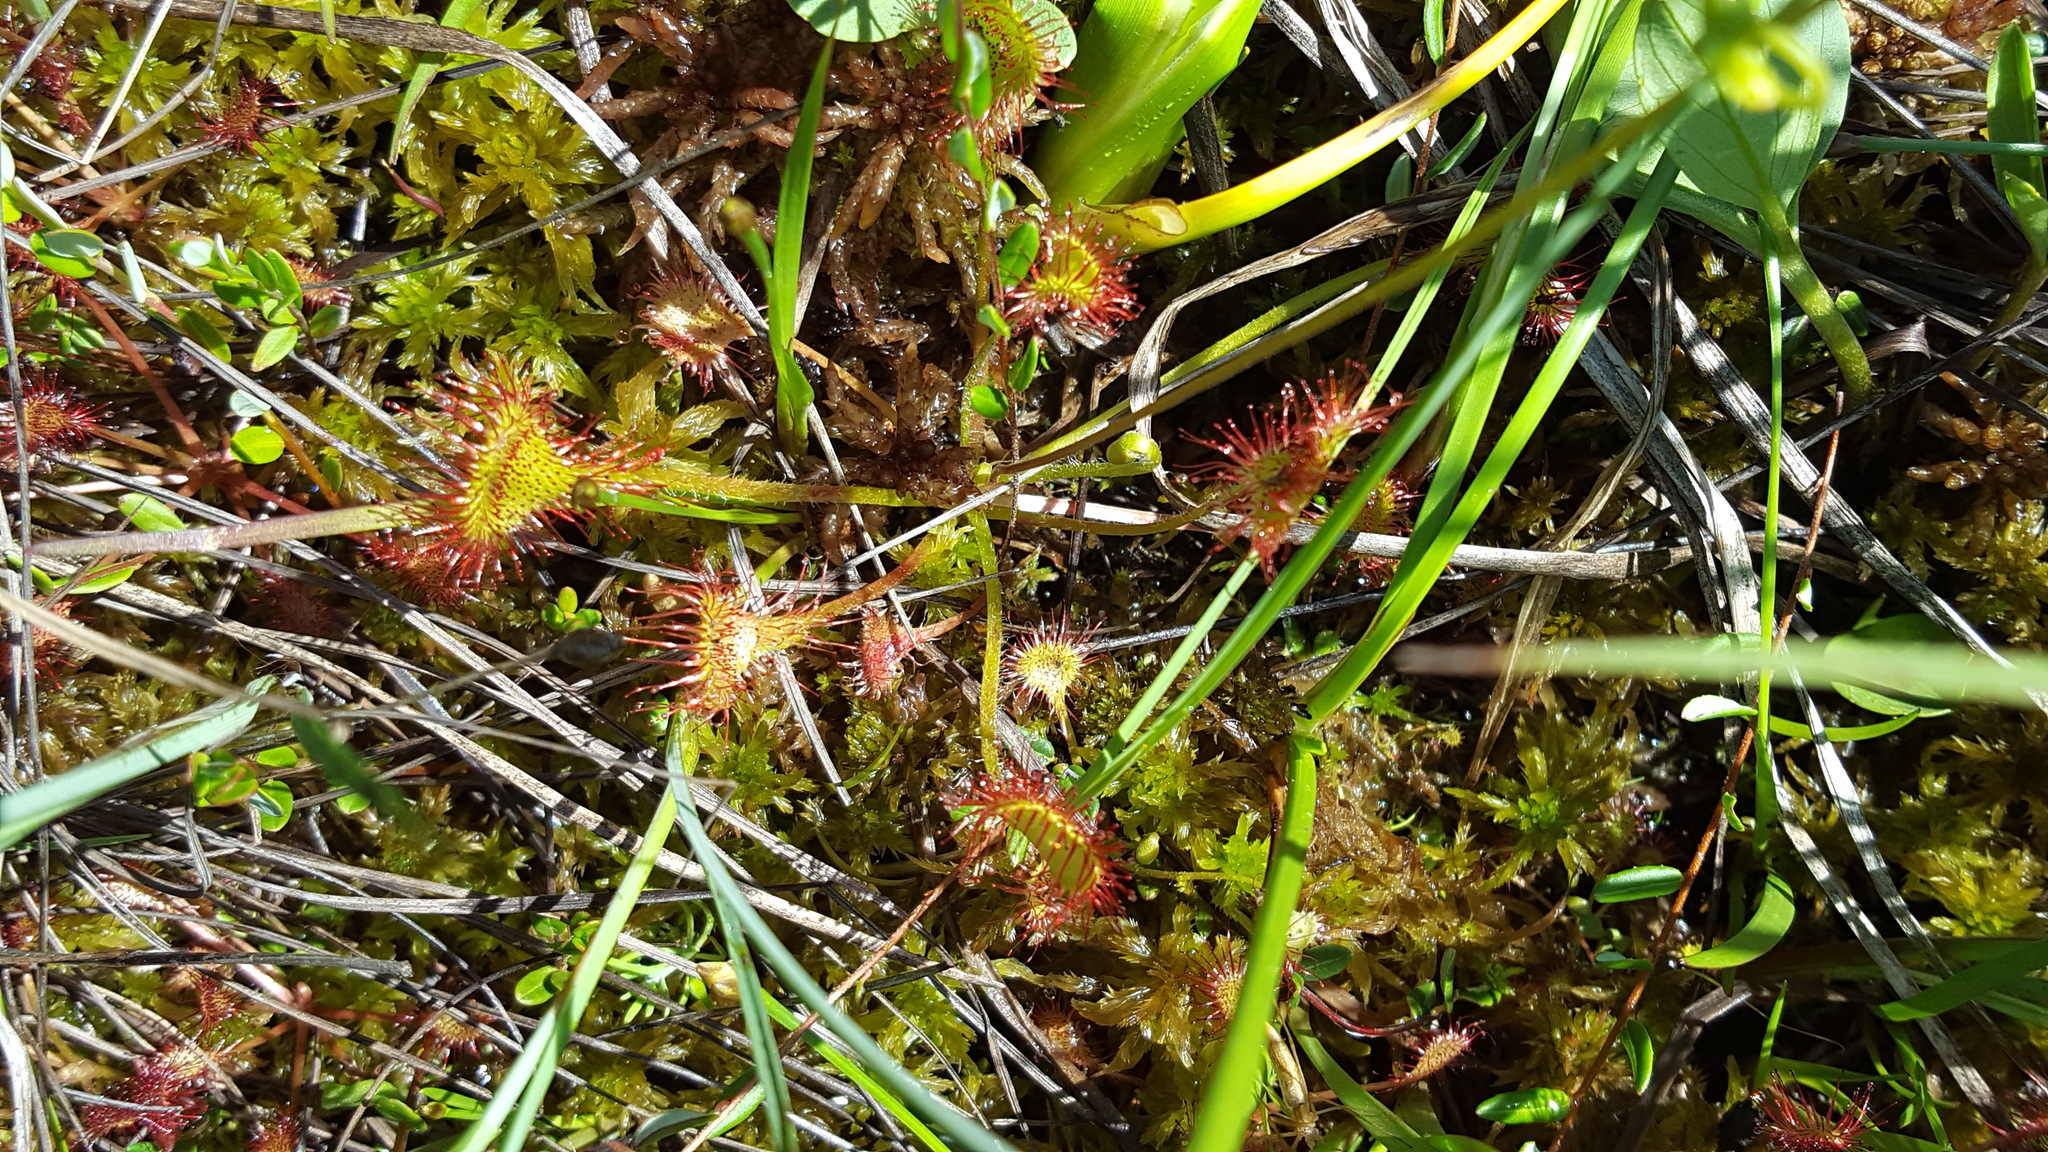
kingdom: Plantae
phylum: Tracheophyta
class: Magnoliopsida
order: Caryophyllales
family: Droseraceae
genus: Drosera
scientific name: Drosera rotundifolia
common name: Round-leaved sundew
